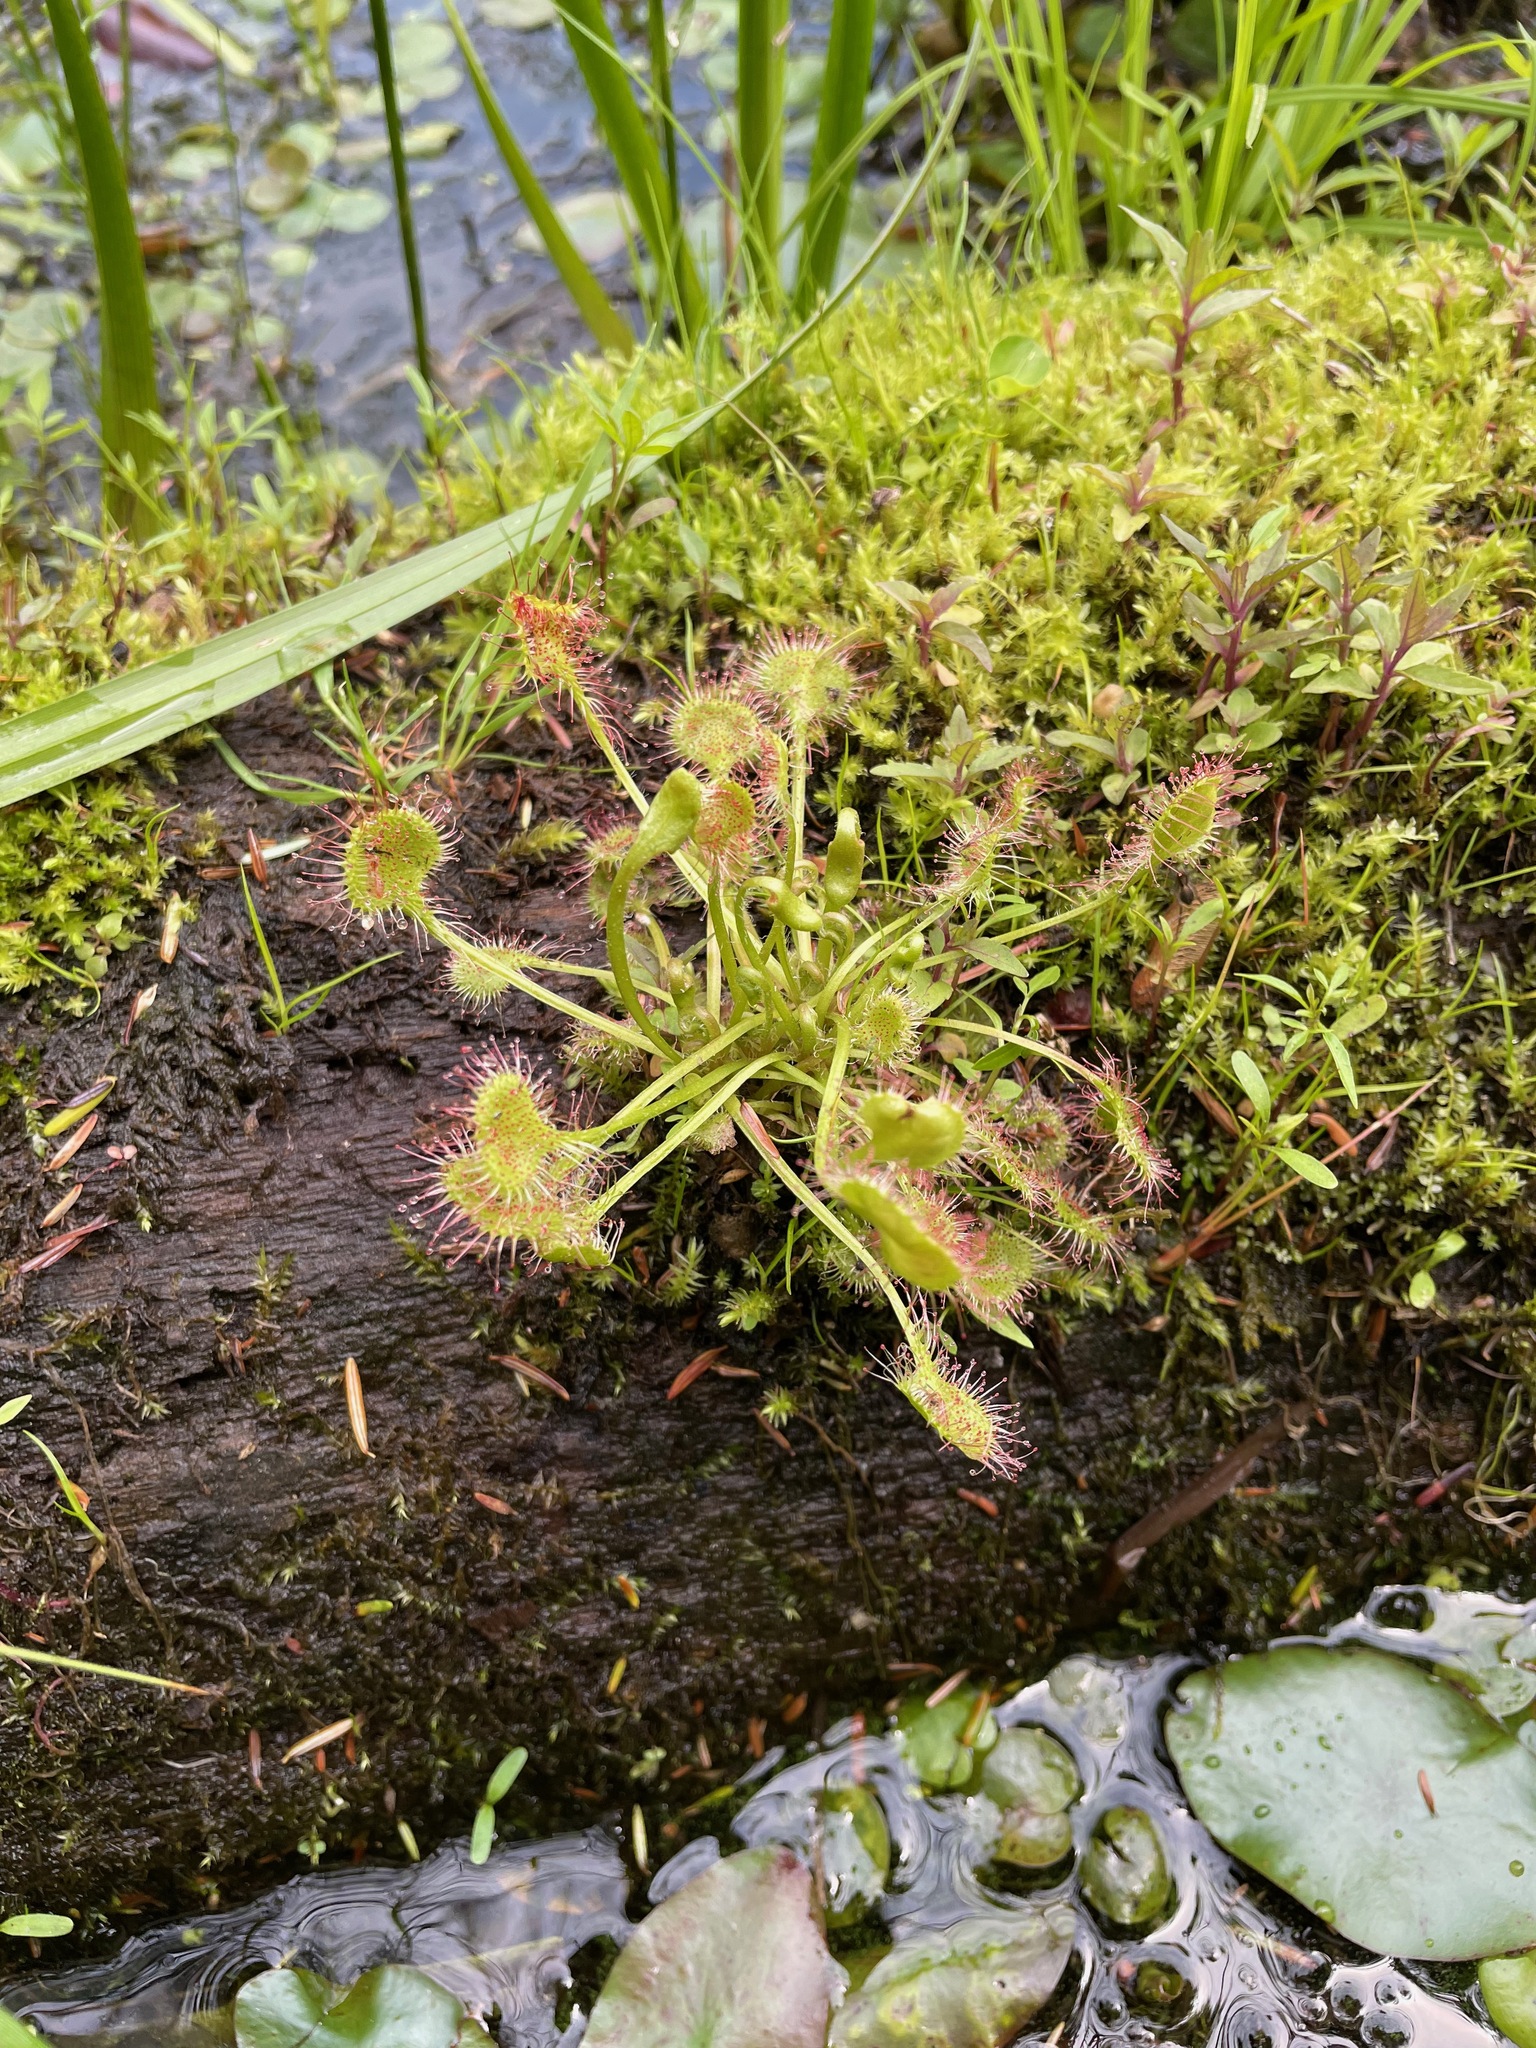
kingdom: Plantae
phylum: Tracheophyta
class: Magnoliopsida
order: Caryophyllales
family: Droseraceae
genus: Drosera
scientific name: Drosera rotundifolia
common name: Round-leaved sundew
